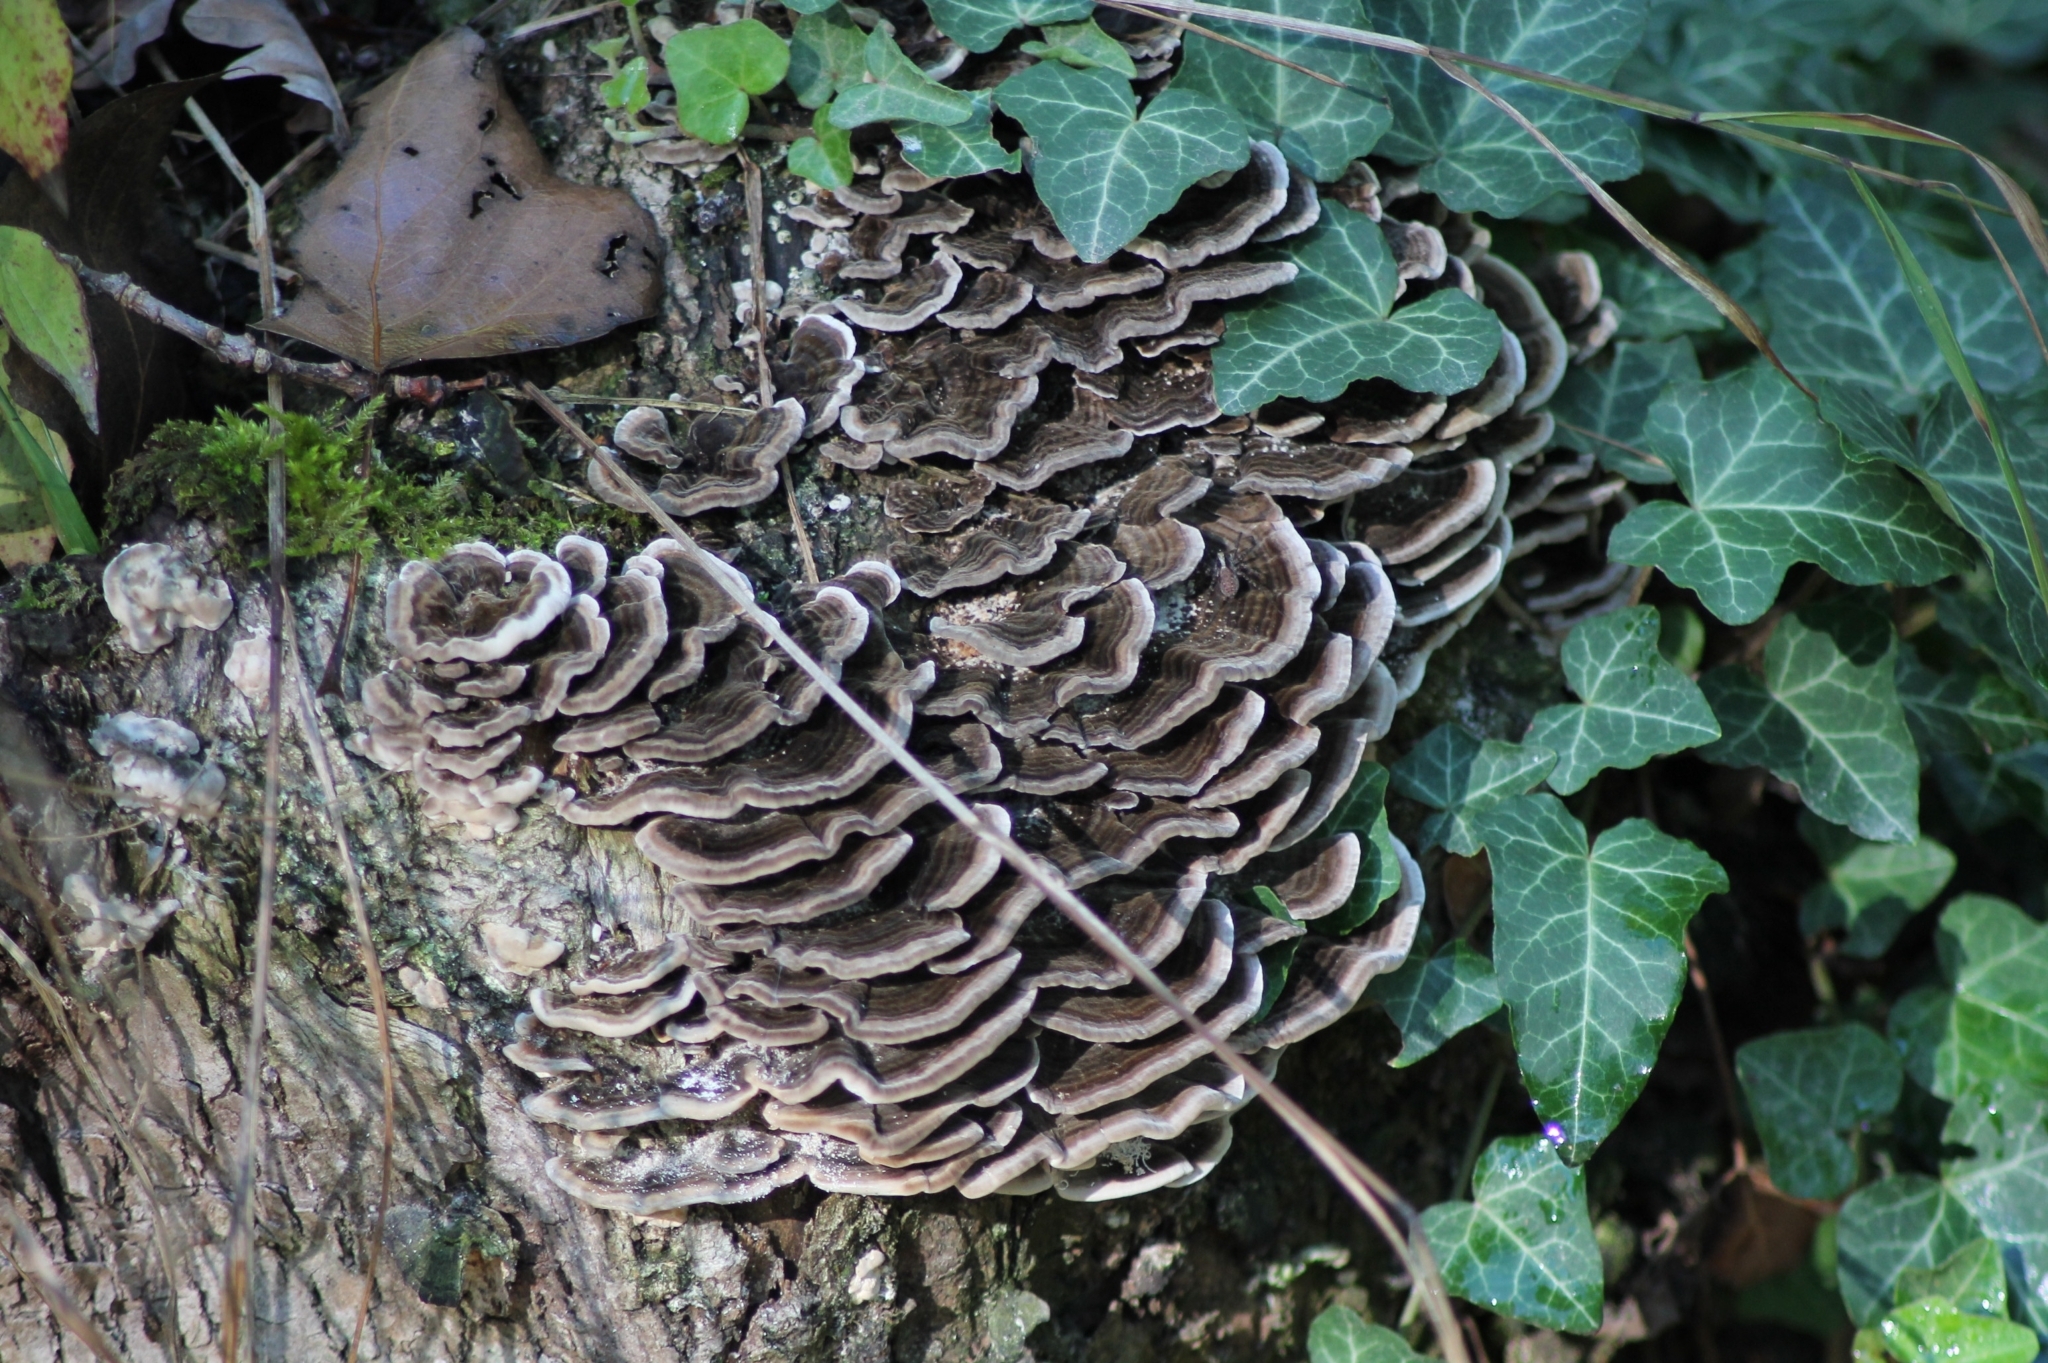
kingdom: Fungi
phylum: Basidiomycota
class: Agaricomycetes
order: Polyporales
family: Polyporaceae
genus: Trametes
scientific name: Trametes versicolor
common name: Turkeytail
